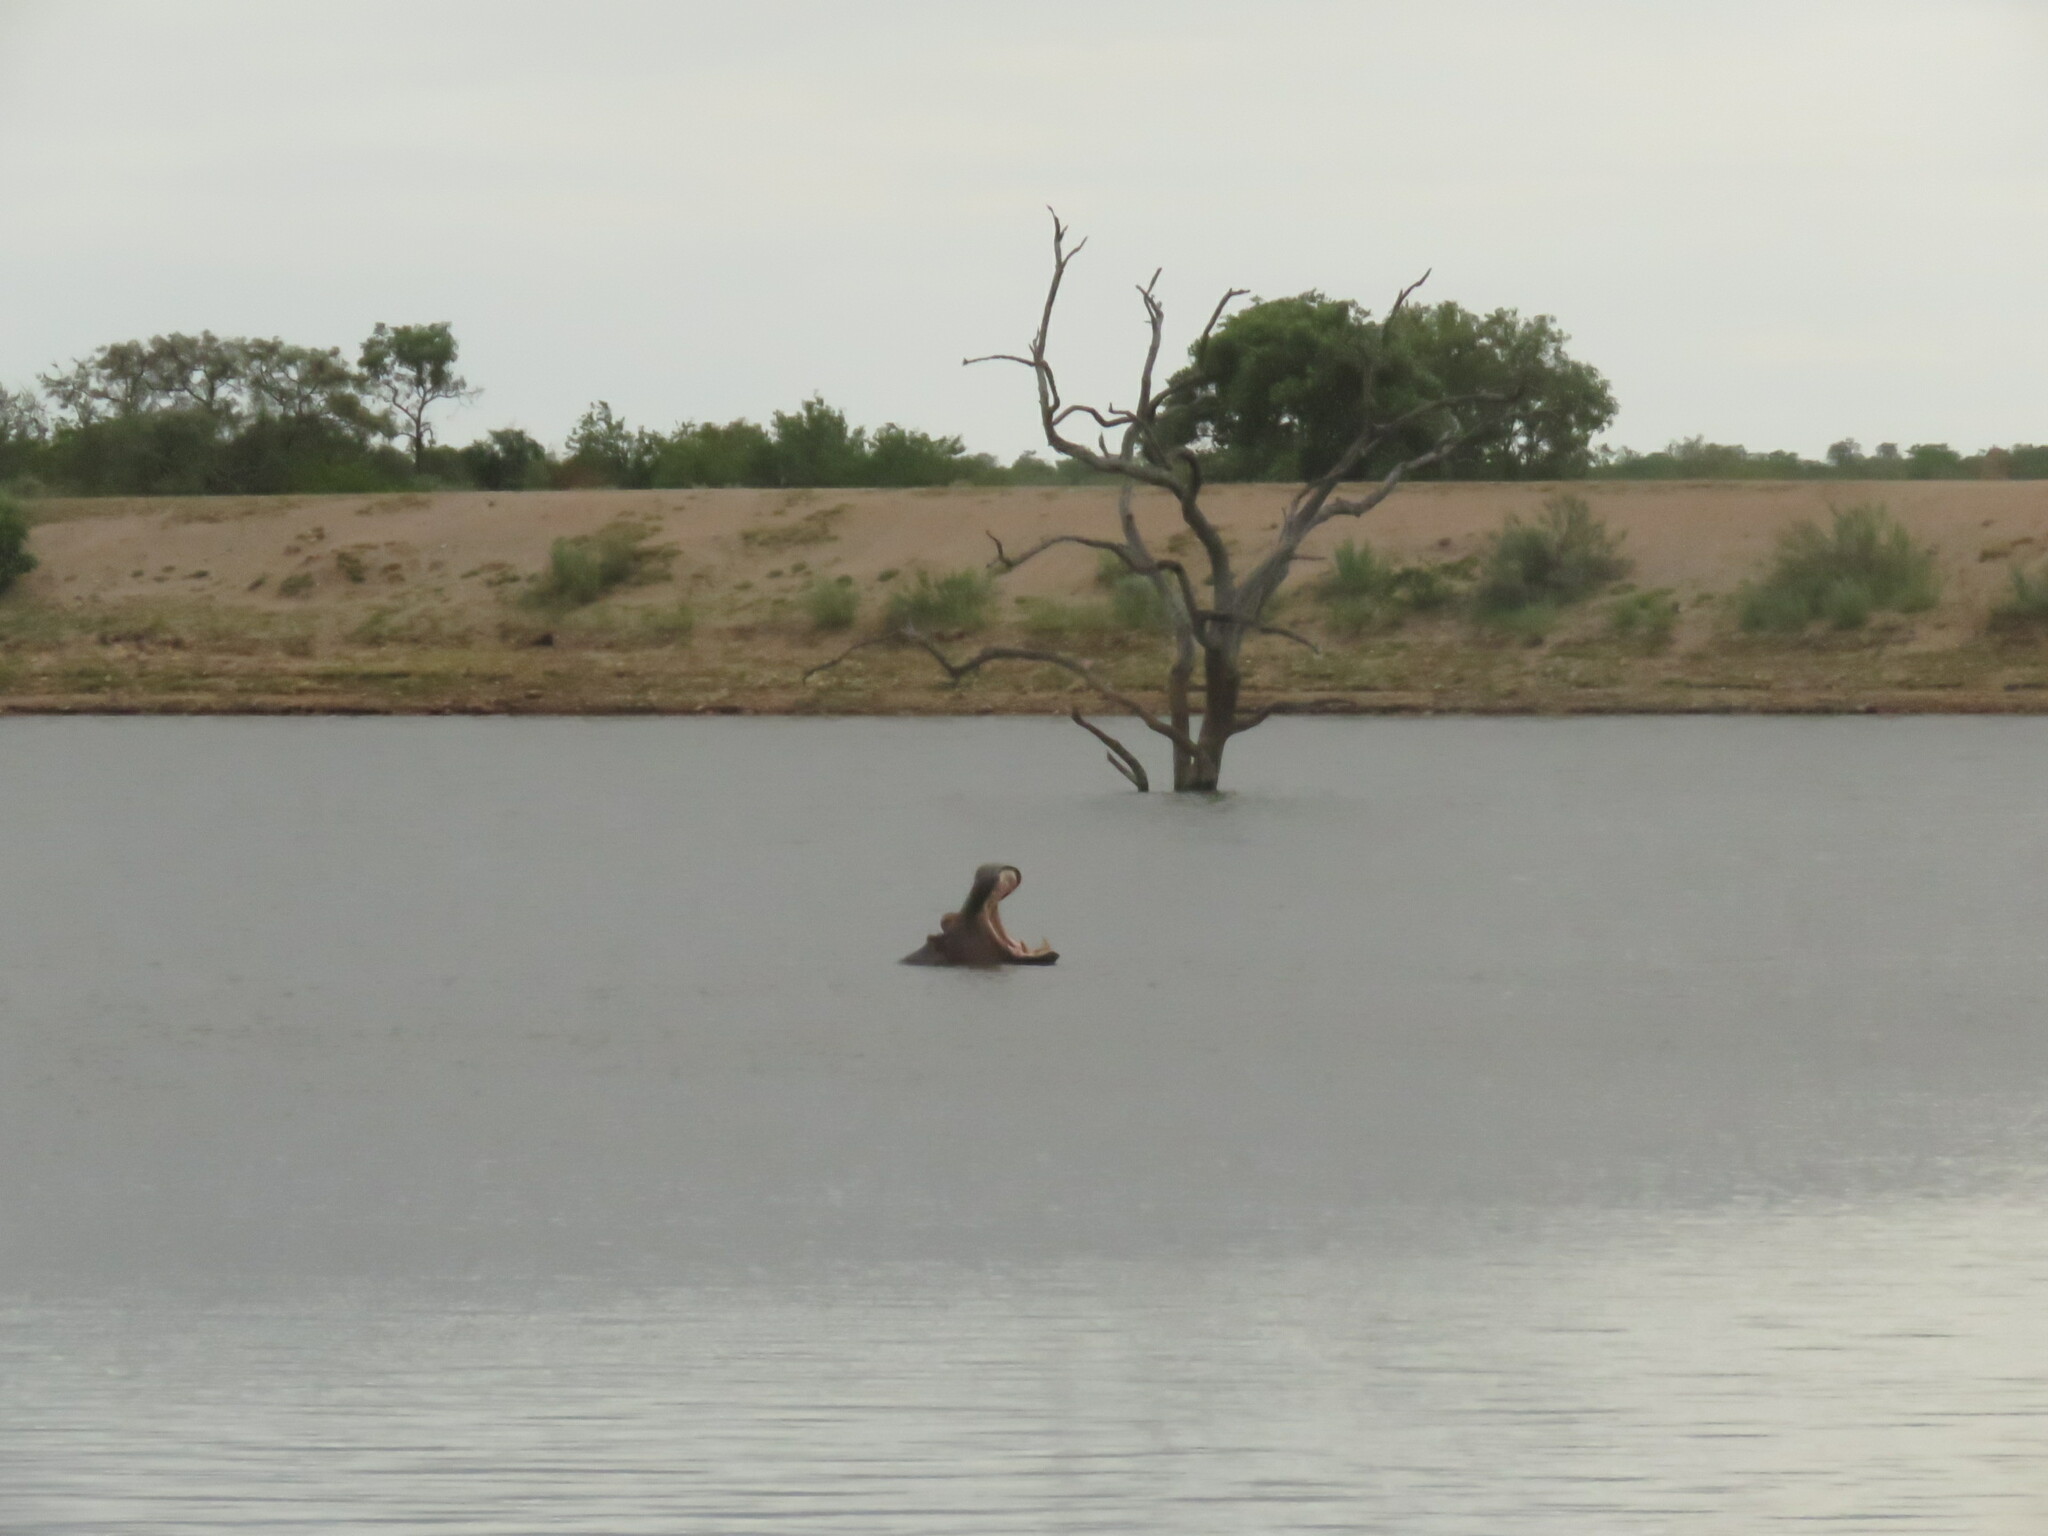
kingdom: Animalia
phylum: Chordata
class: Mammalia
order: Artiodactyla
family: Hippopotamidae
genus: Hippopotamus
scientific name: Hippopotamus amphibius
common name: Common hippopotamus
